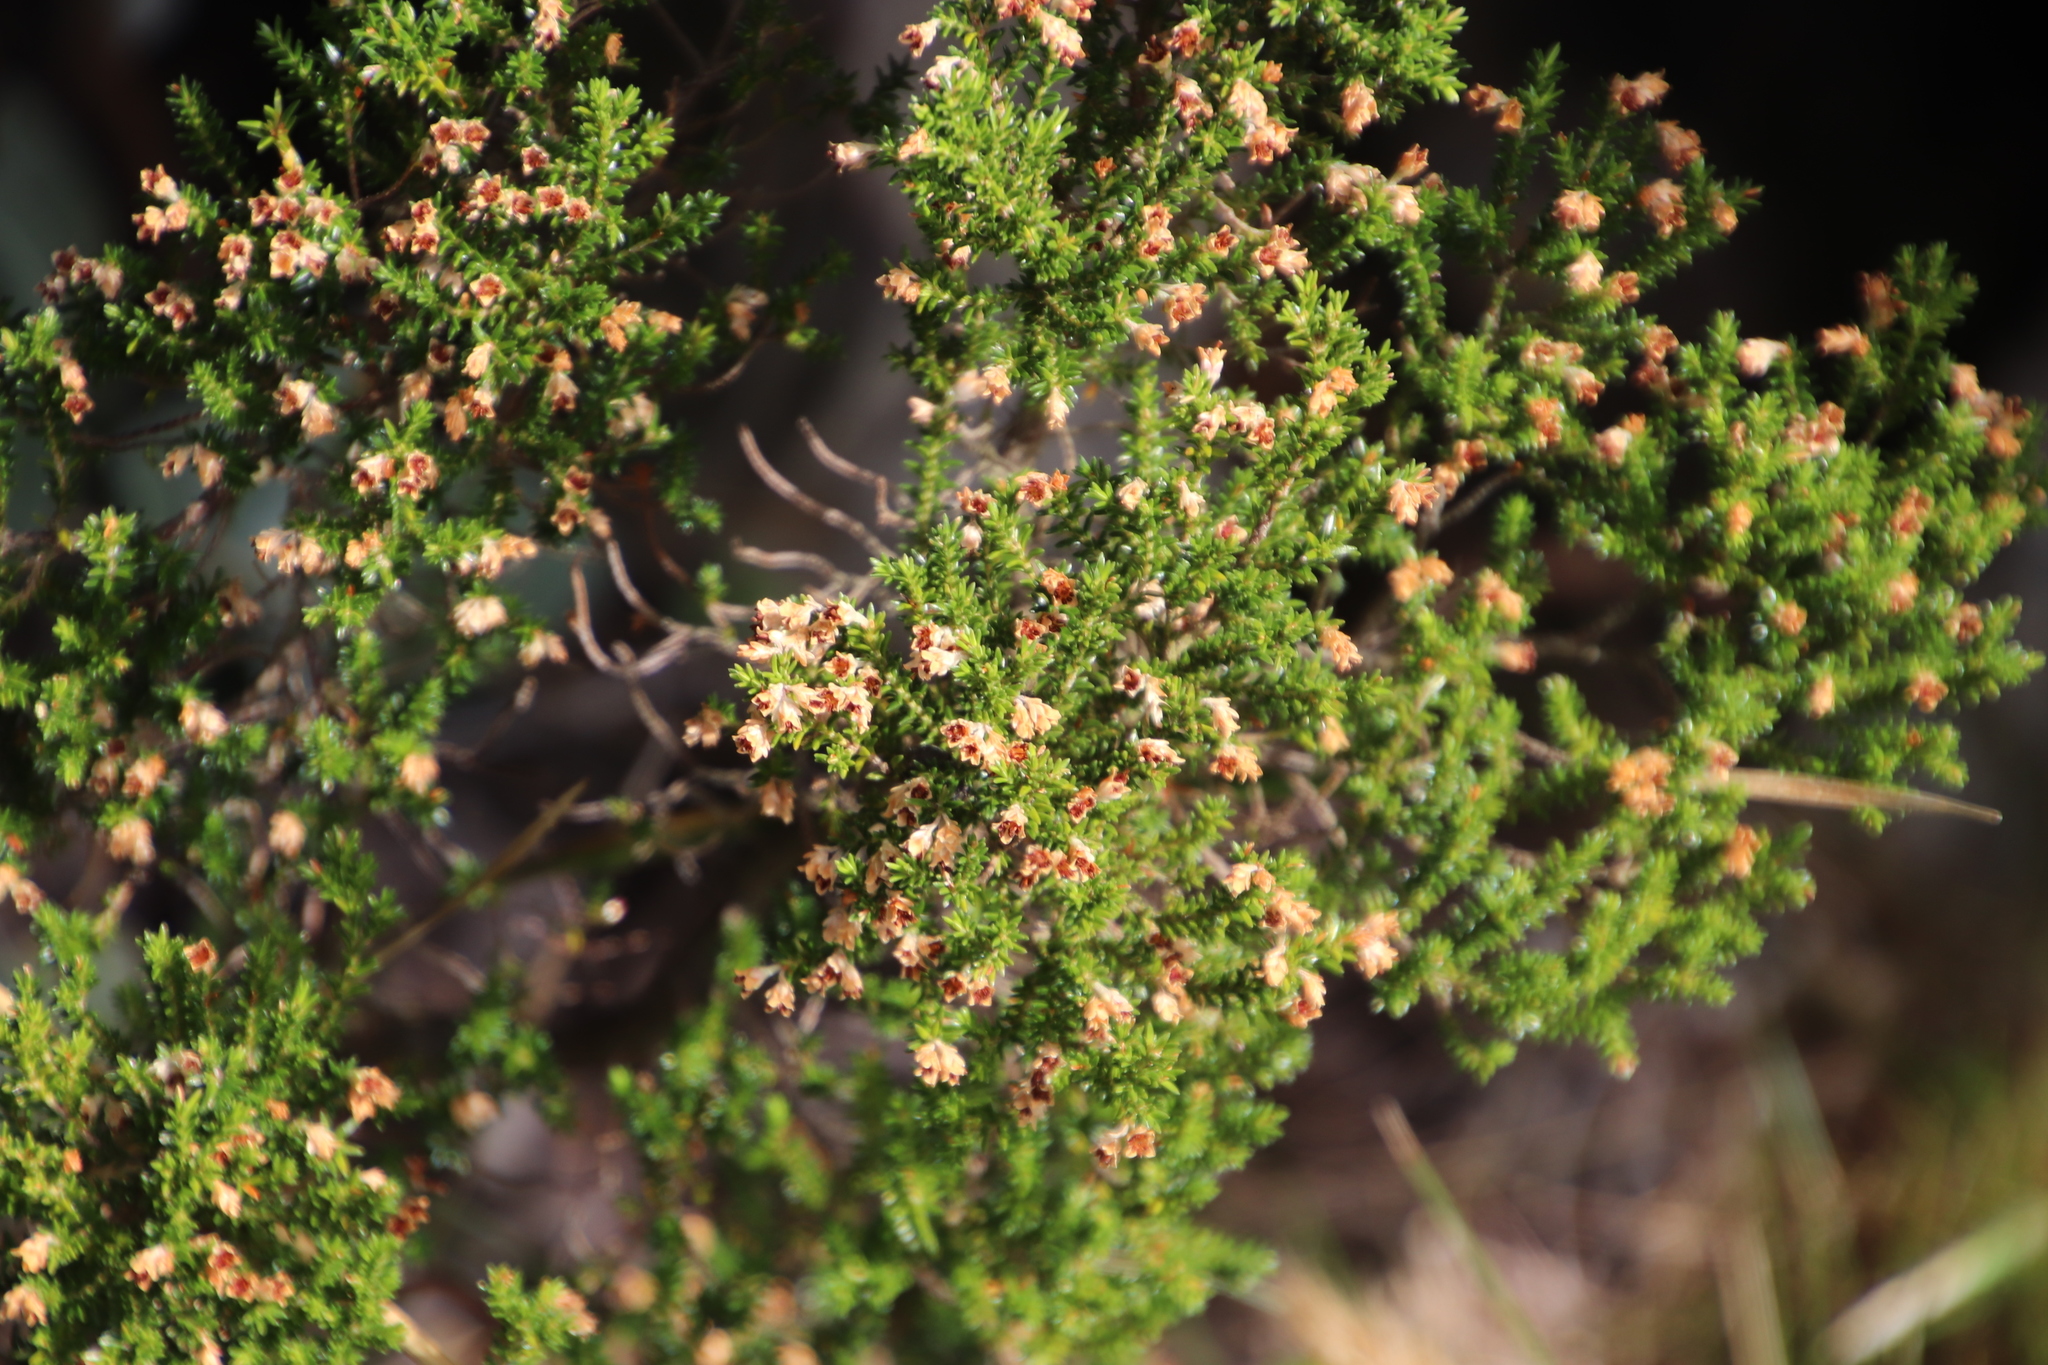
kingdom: Plantae
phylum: Tracheophyta
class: Magnoliopsida
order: Ericales
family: Ericaceae
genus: Erica
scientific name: Erica diosmifolia
